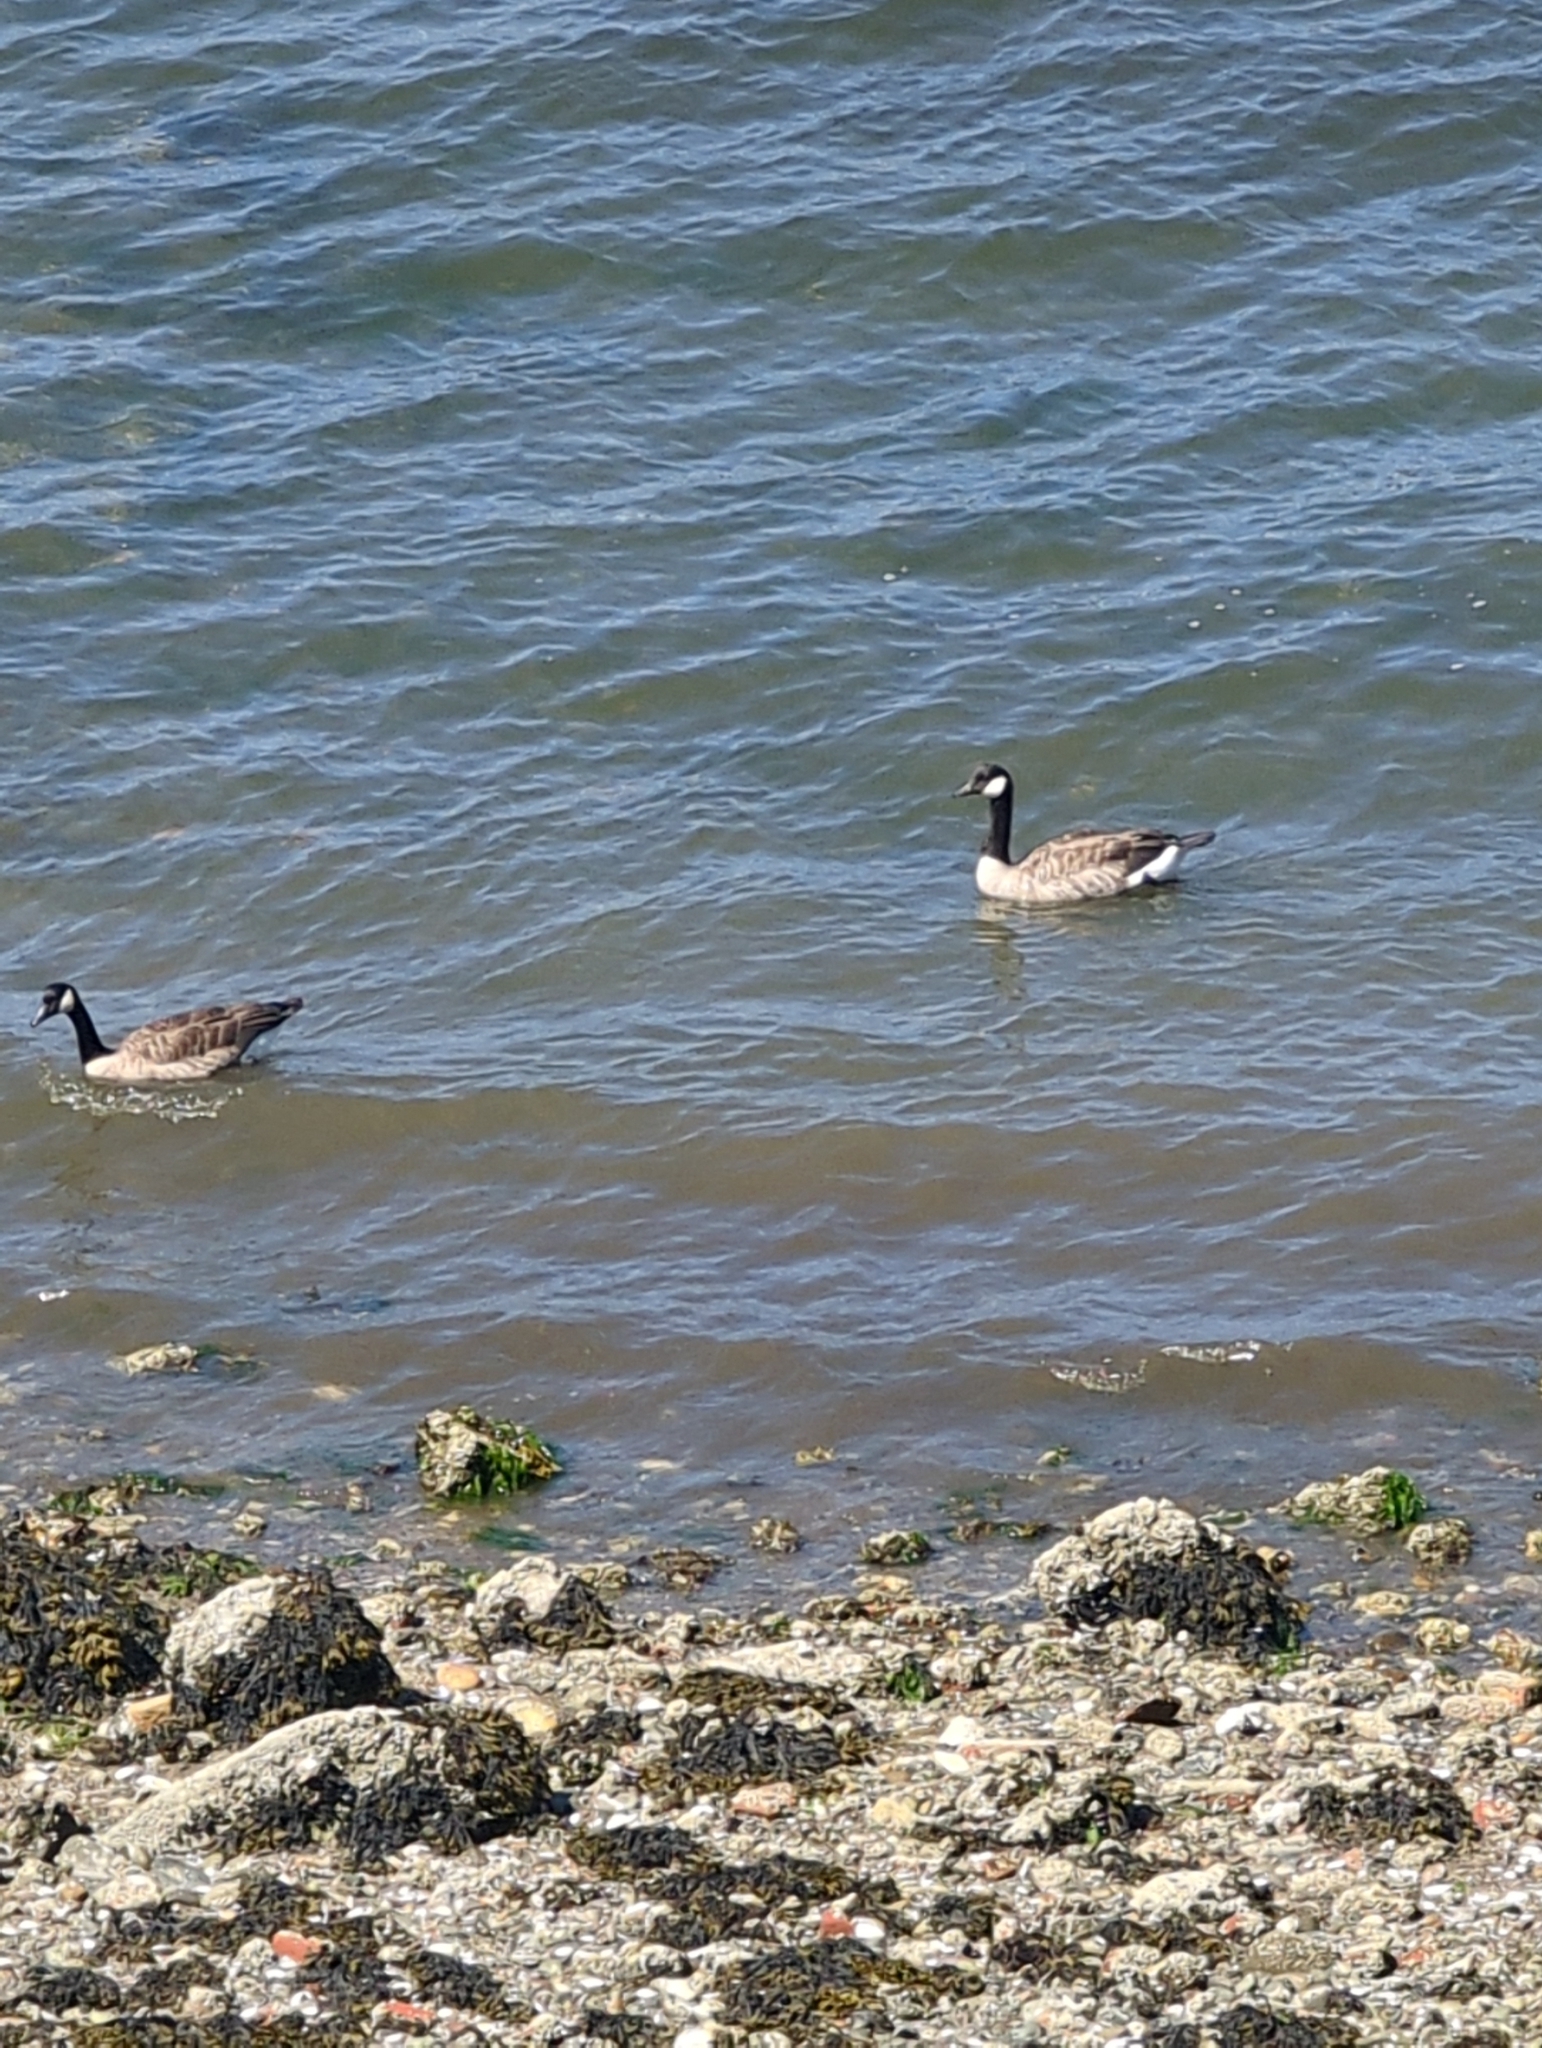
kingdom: Animalia
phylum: Chordata
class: Aves
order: Anseriformes
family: Anatidae
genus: Branta
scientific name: Branta canadensis
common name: Canada goose
